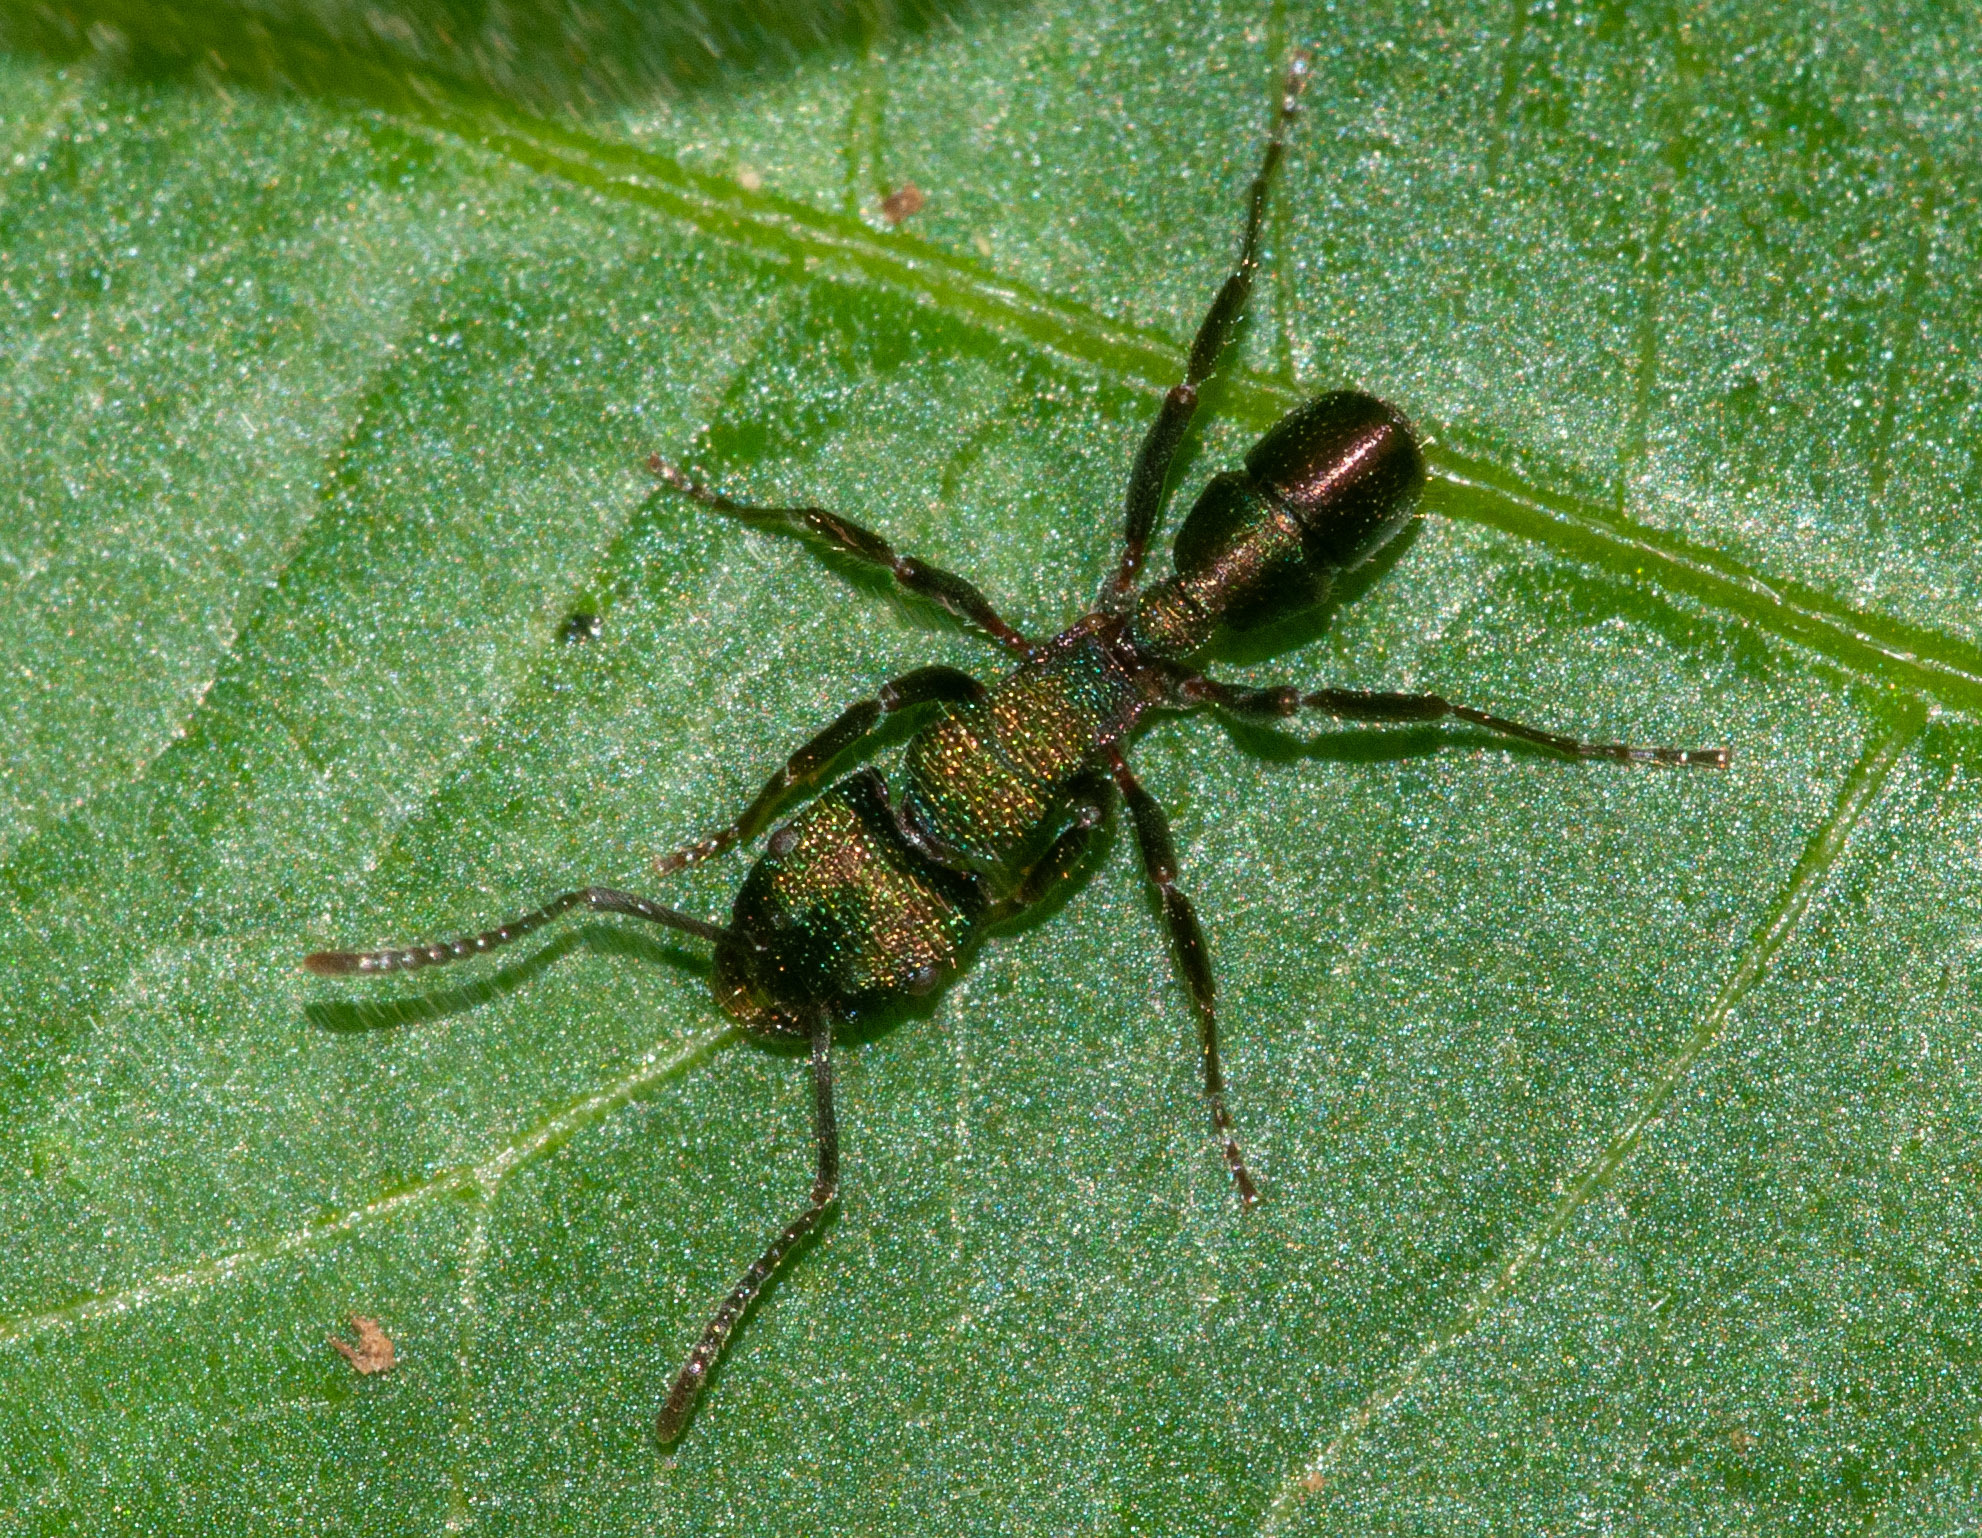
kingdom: Animalia
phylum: Arthropoda
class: Insecta
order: Hymenoptera
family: Formicidae
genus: Rhytidoponera
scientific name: Rhytidoponera metallica
